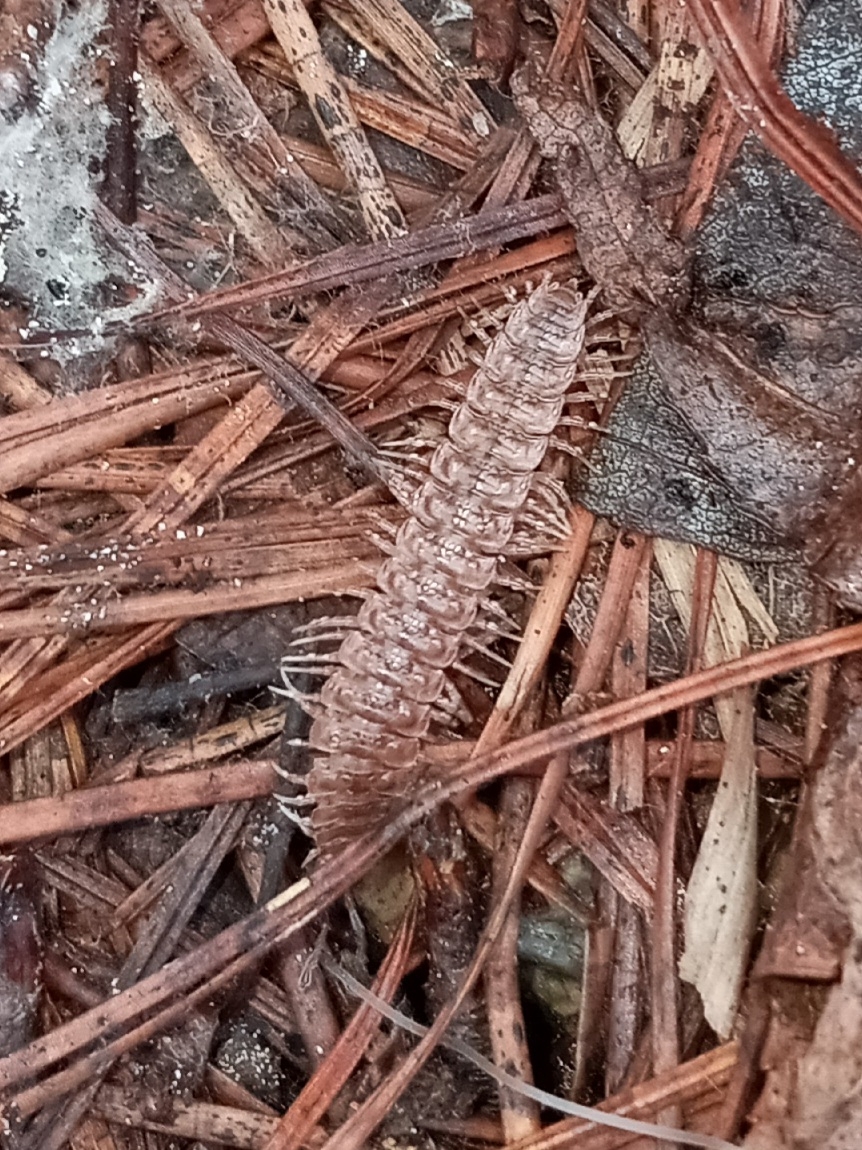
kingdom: Animalia
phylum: Arthropoda
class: Diplopoda
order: Polydesmida
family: Polydesmidae
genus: Pseudopolydesmus
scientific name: Pseudopolydesmus serratus
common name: Common pink flat-back millipede
